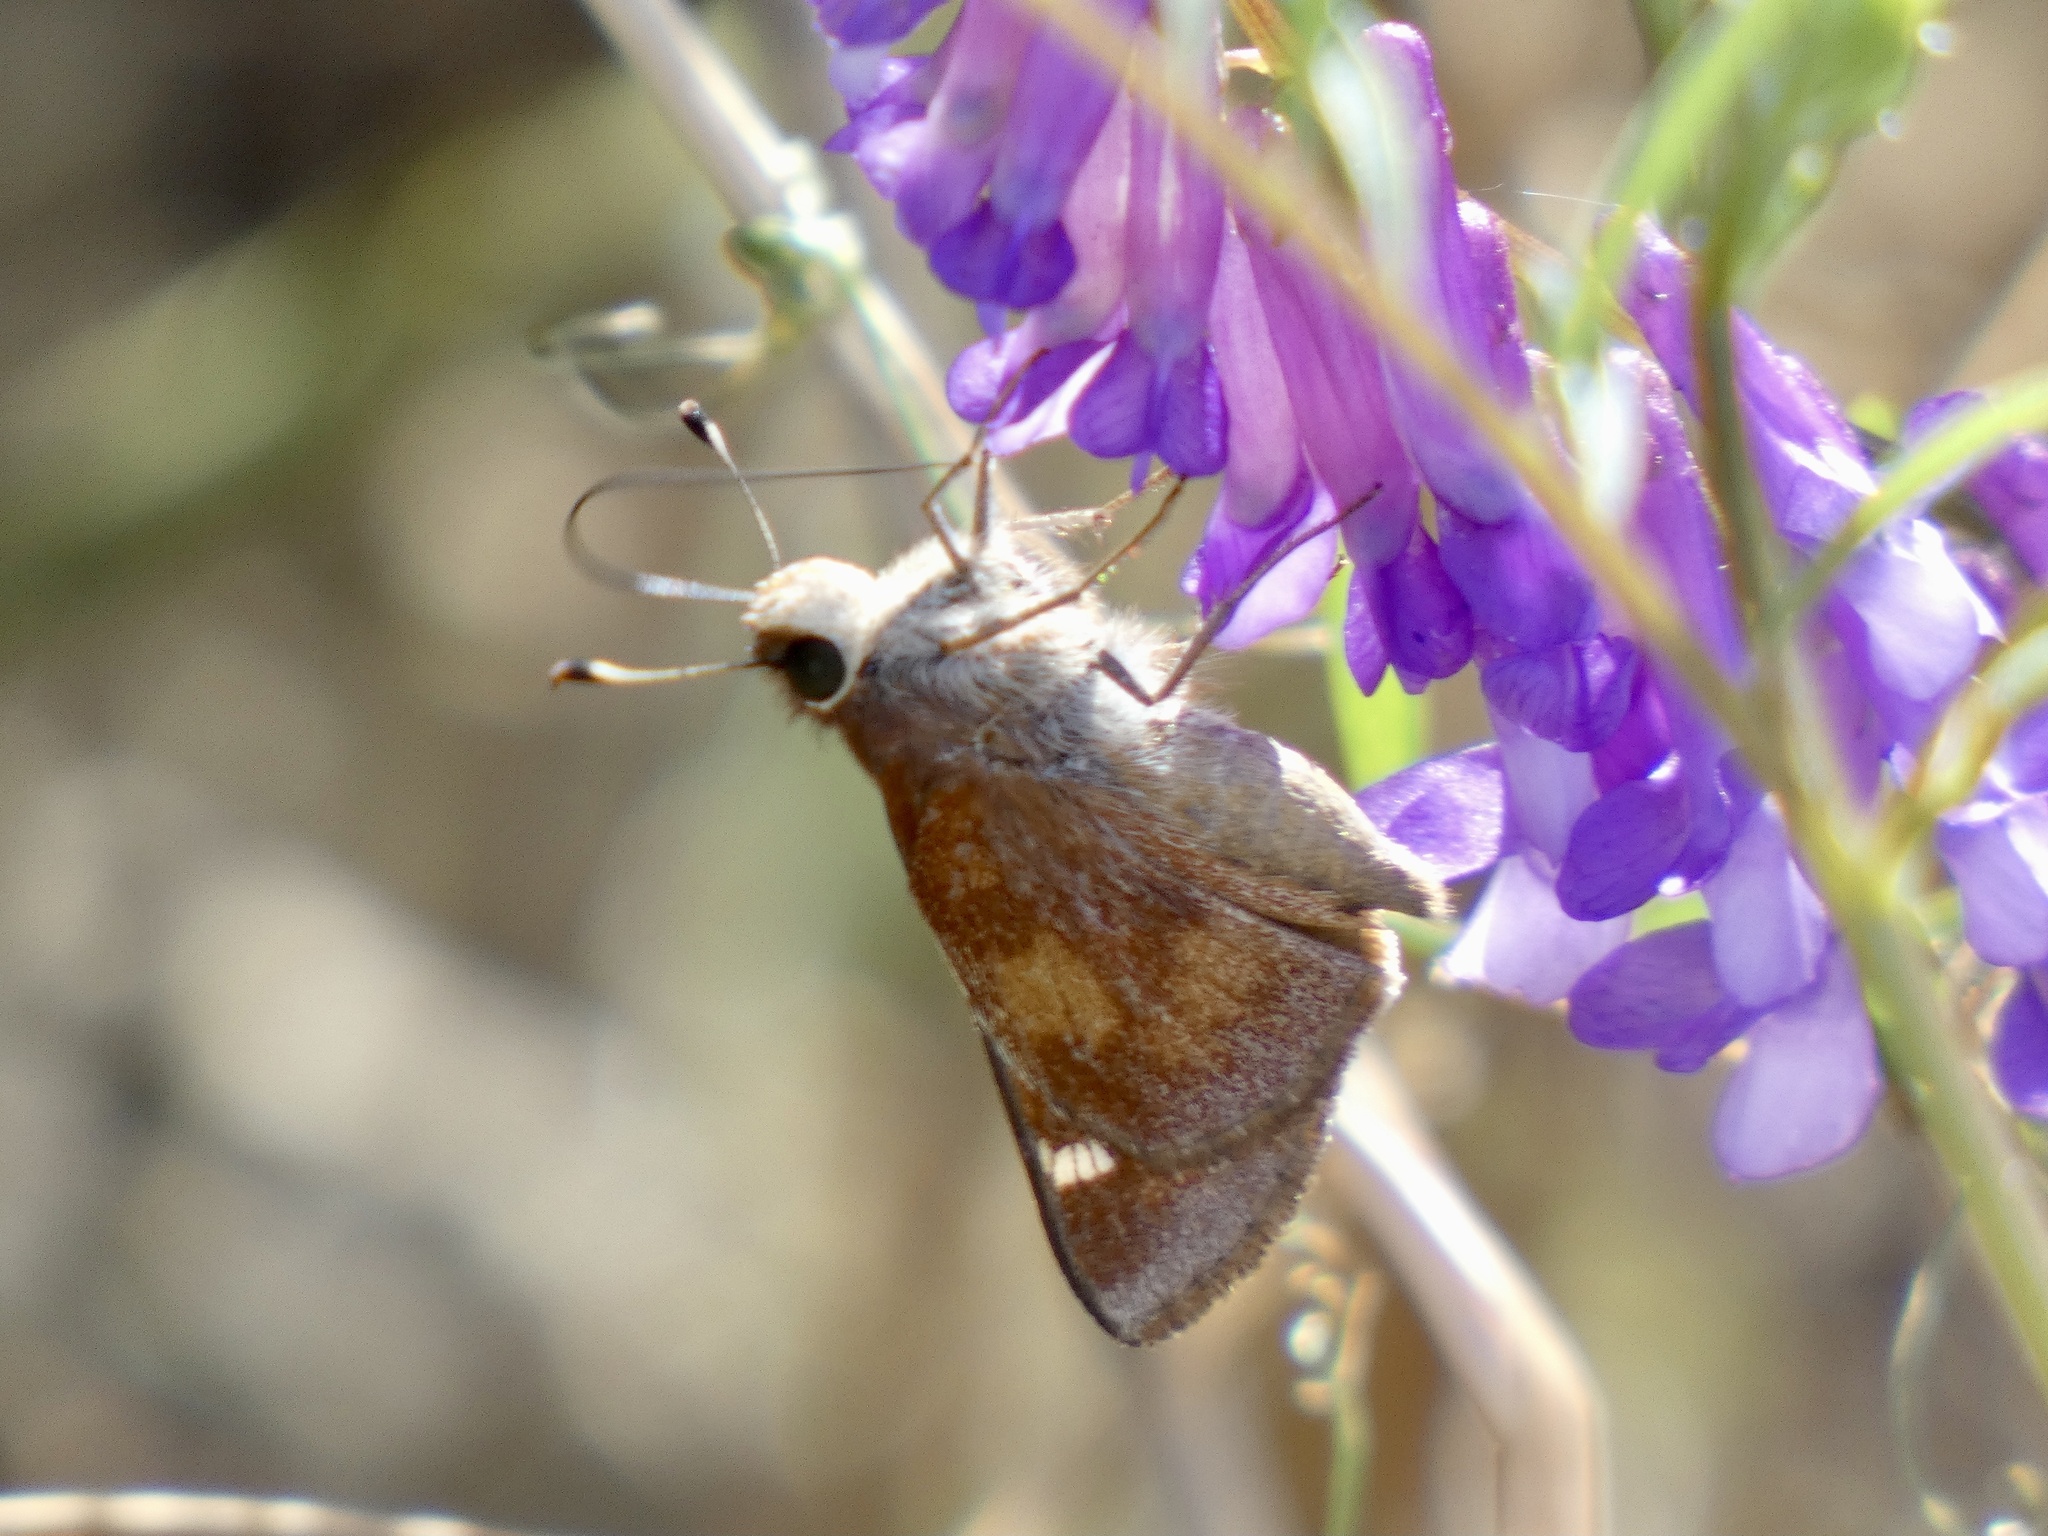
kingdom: Animalia
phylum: Arthropoda
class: Insecta
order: Lepidoptera
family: Hesperiidae
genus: Lon
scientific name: Lon melane
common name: Umber skipper
